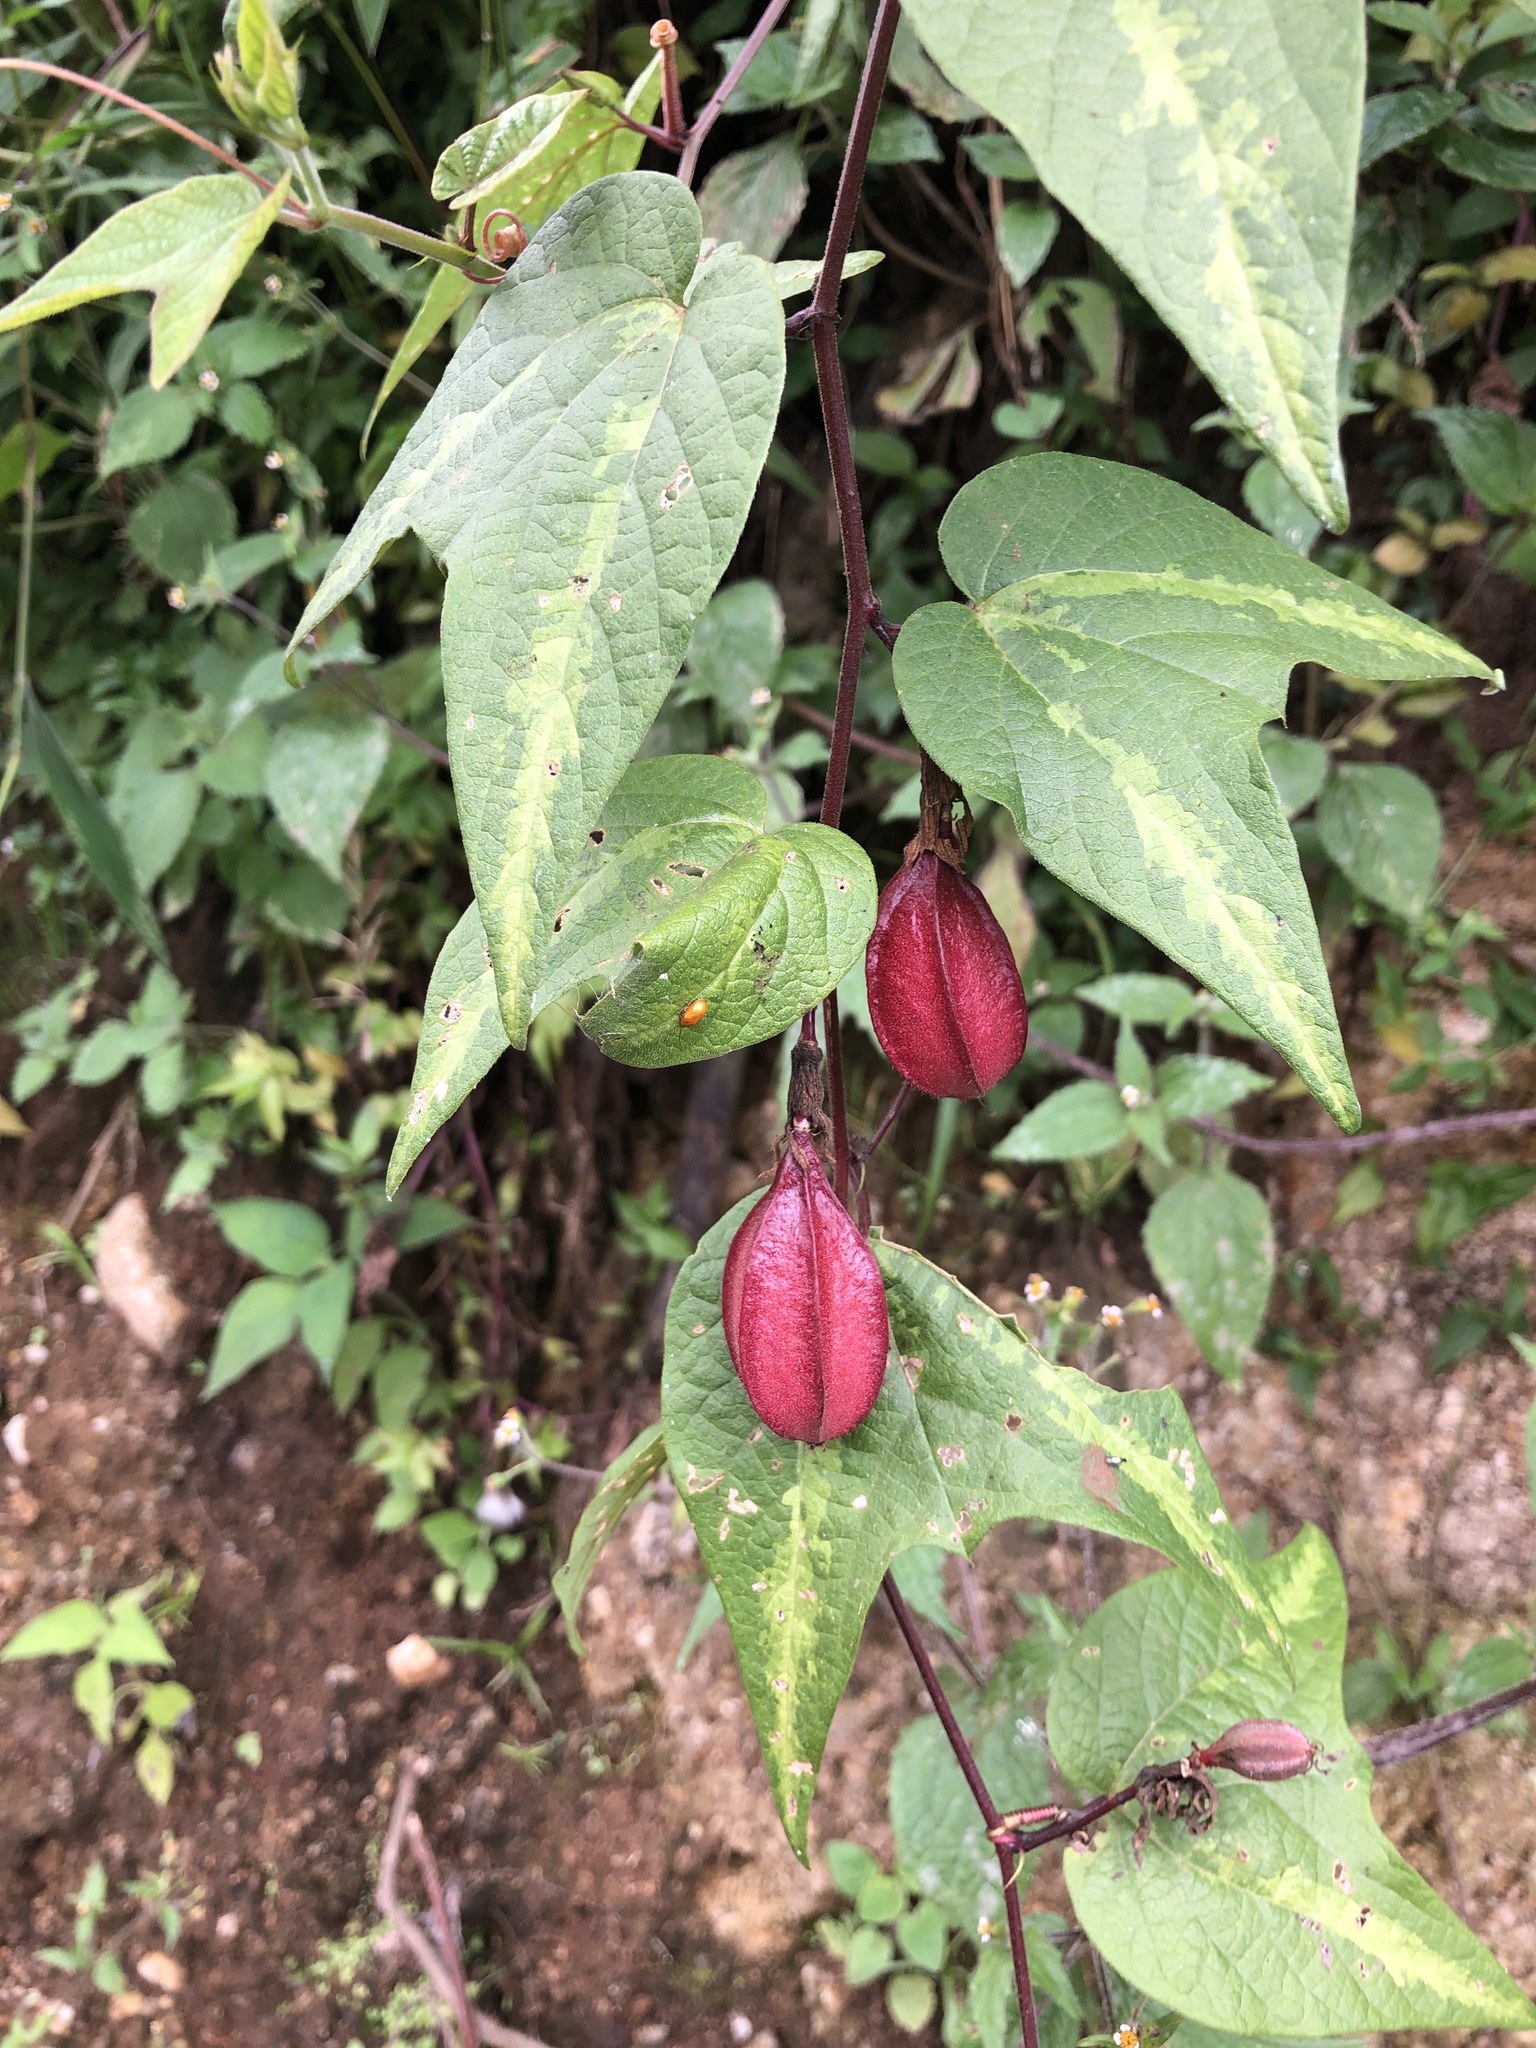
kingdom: Plantae
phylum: Tracheophyta
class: Magnoliopsida
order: Malpighiales
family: Passifloraceae
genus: Passiflora
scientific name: Passiflora cisnana
